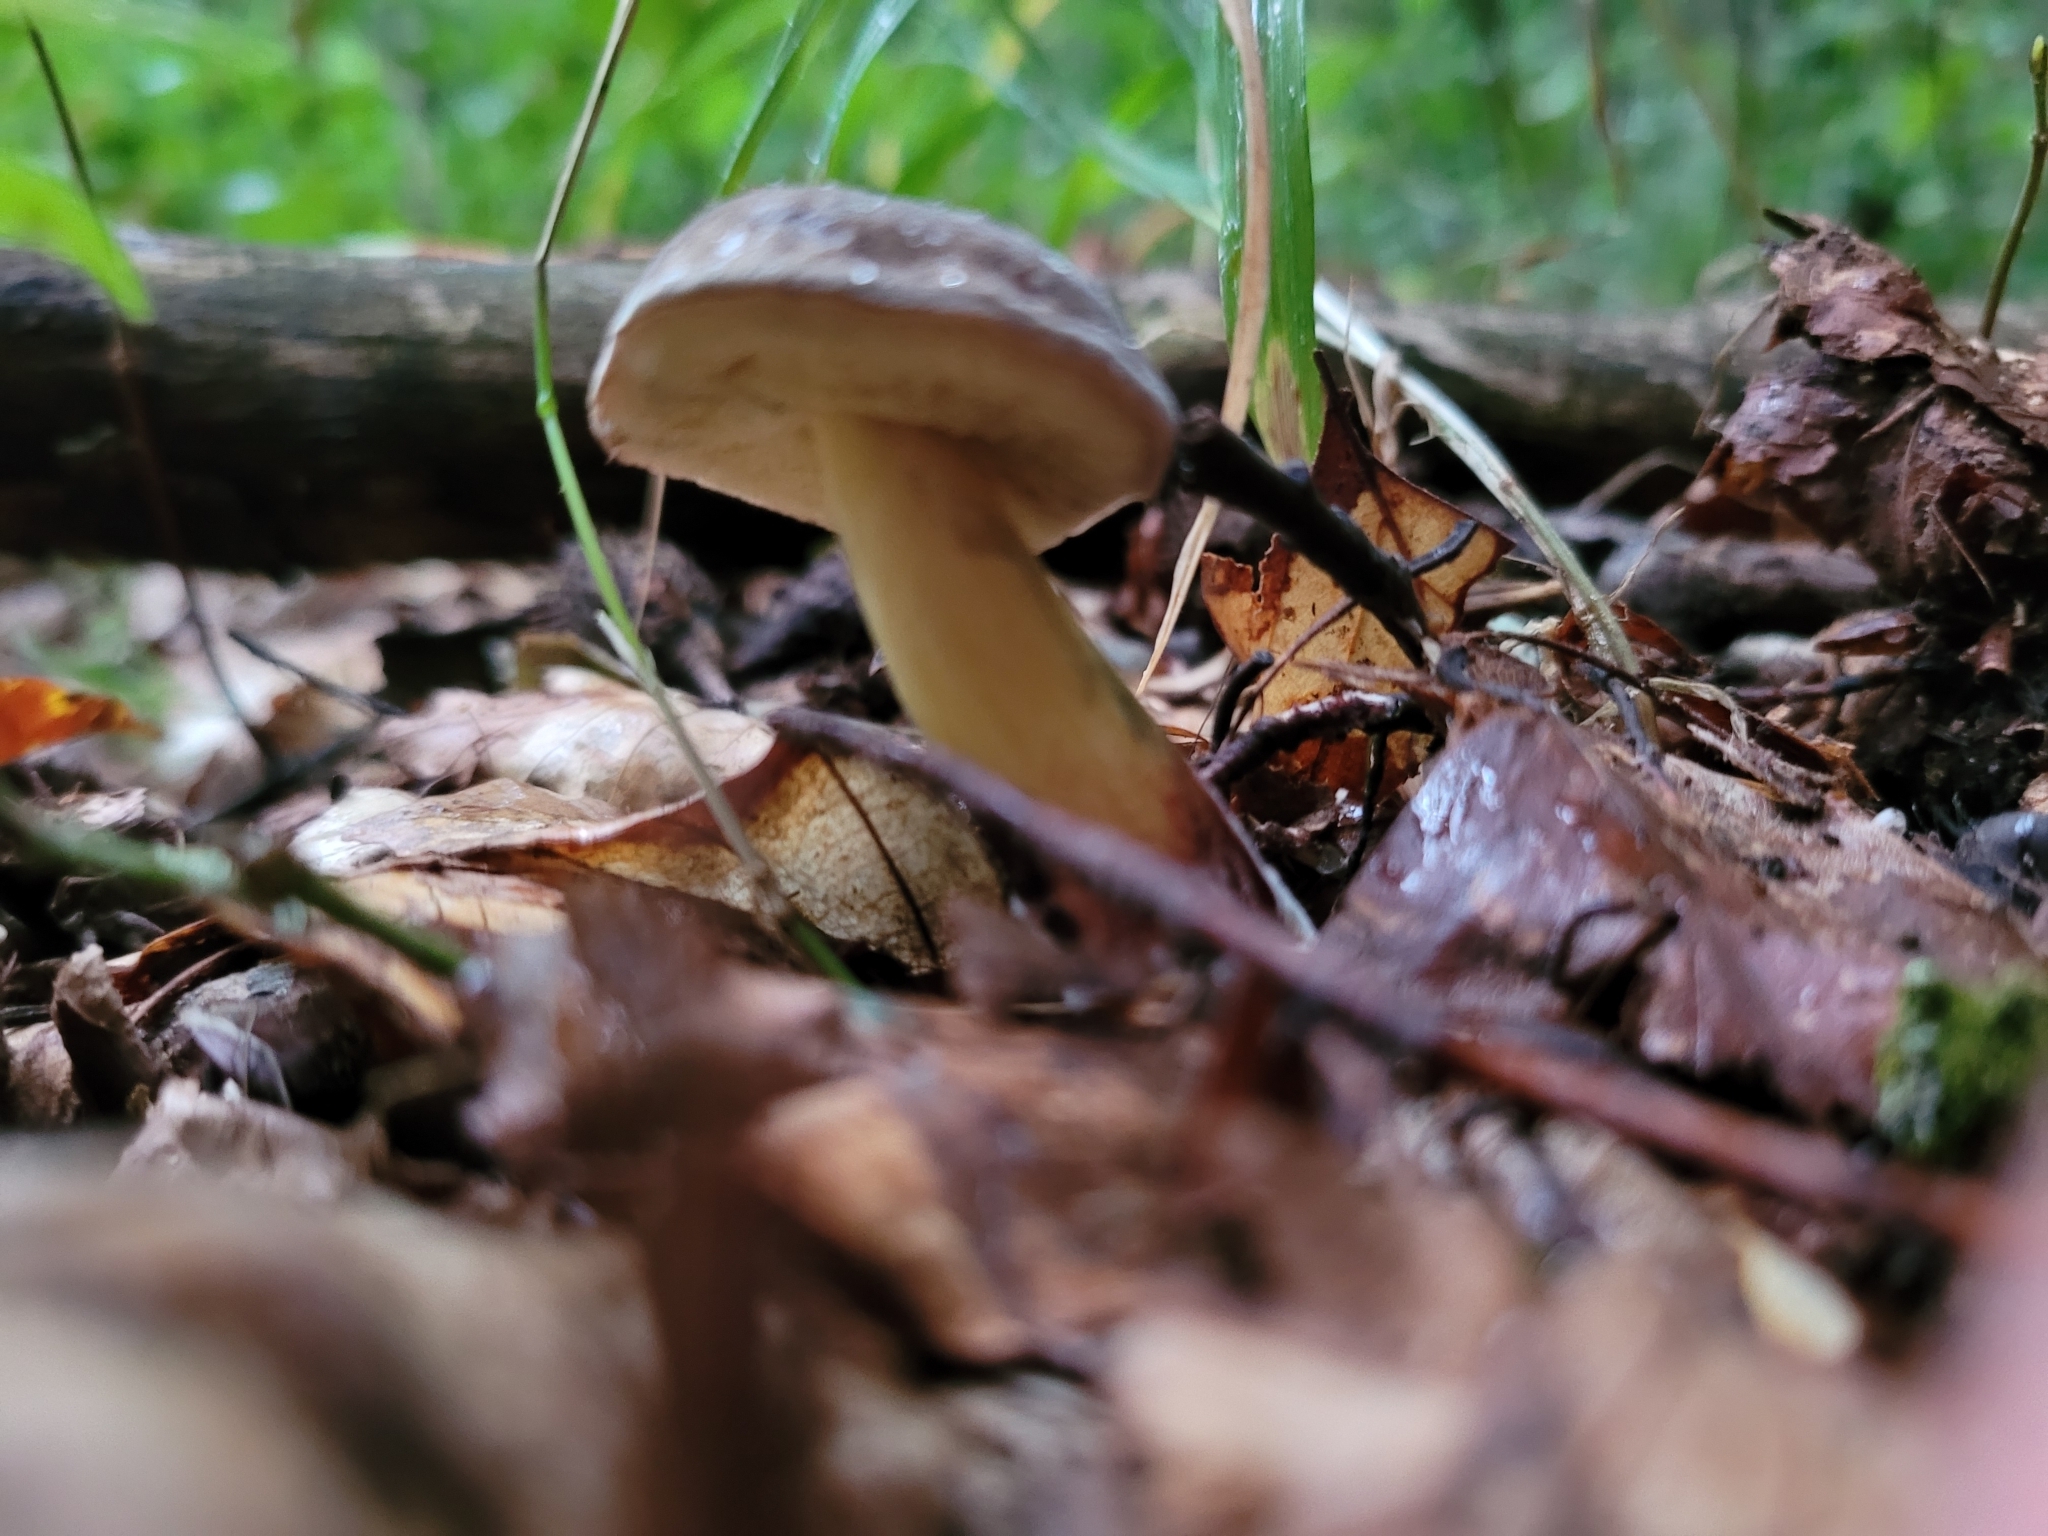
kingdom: Fungi
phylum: Basidiomycota
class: Agaricomycetes
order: Boletales
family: Boletaceae
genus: Xerocomellus
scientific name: Xerocomellus pruinatus
